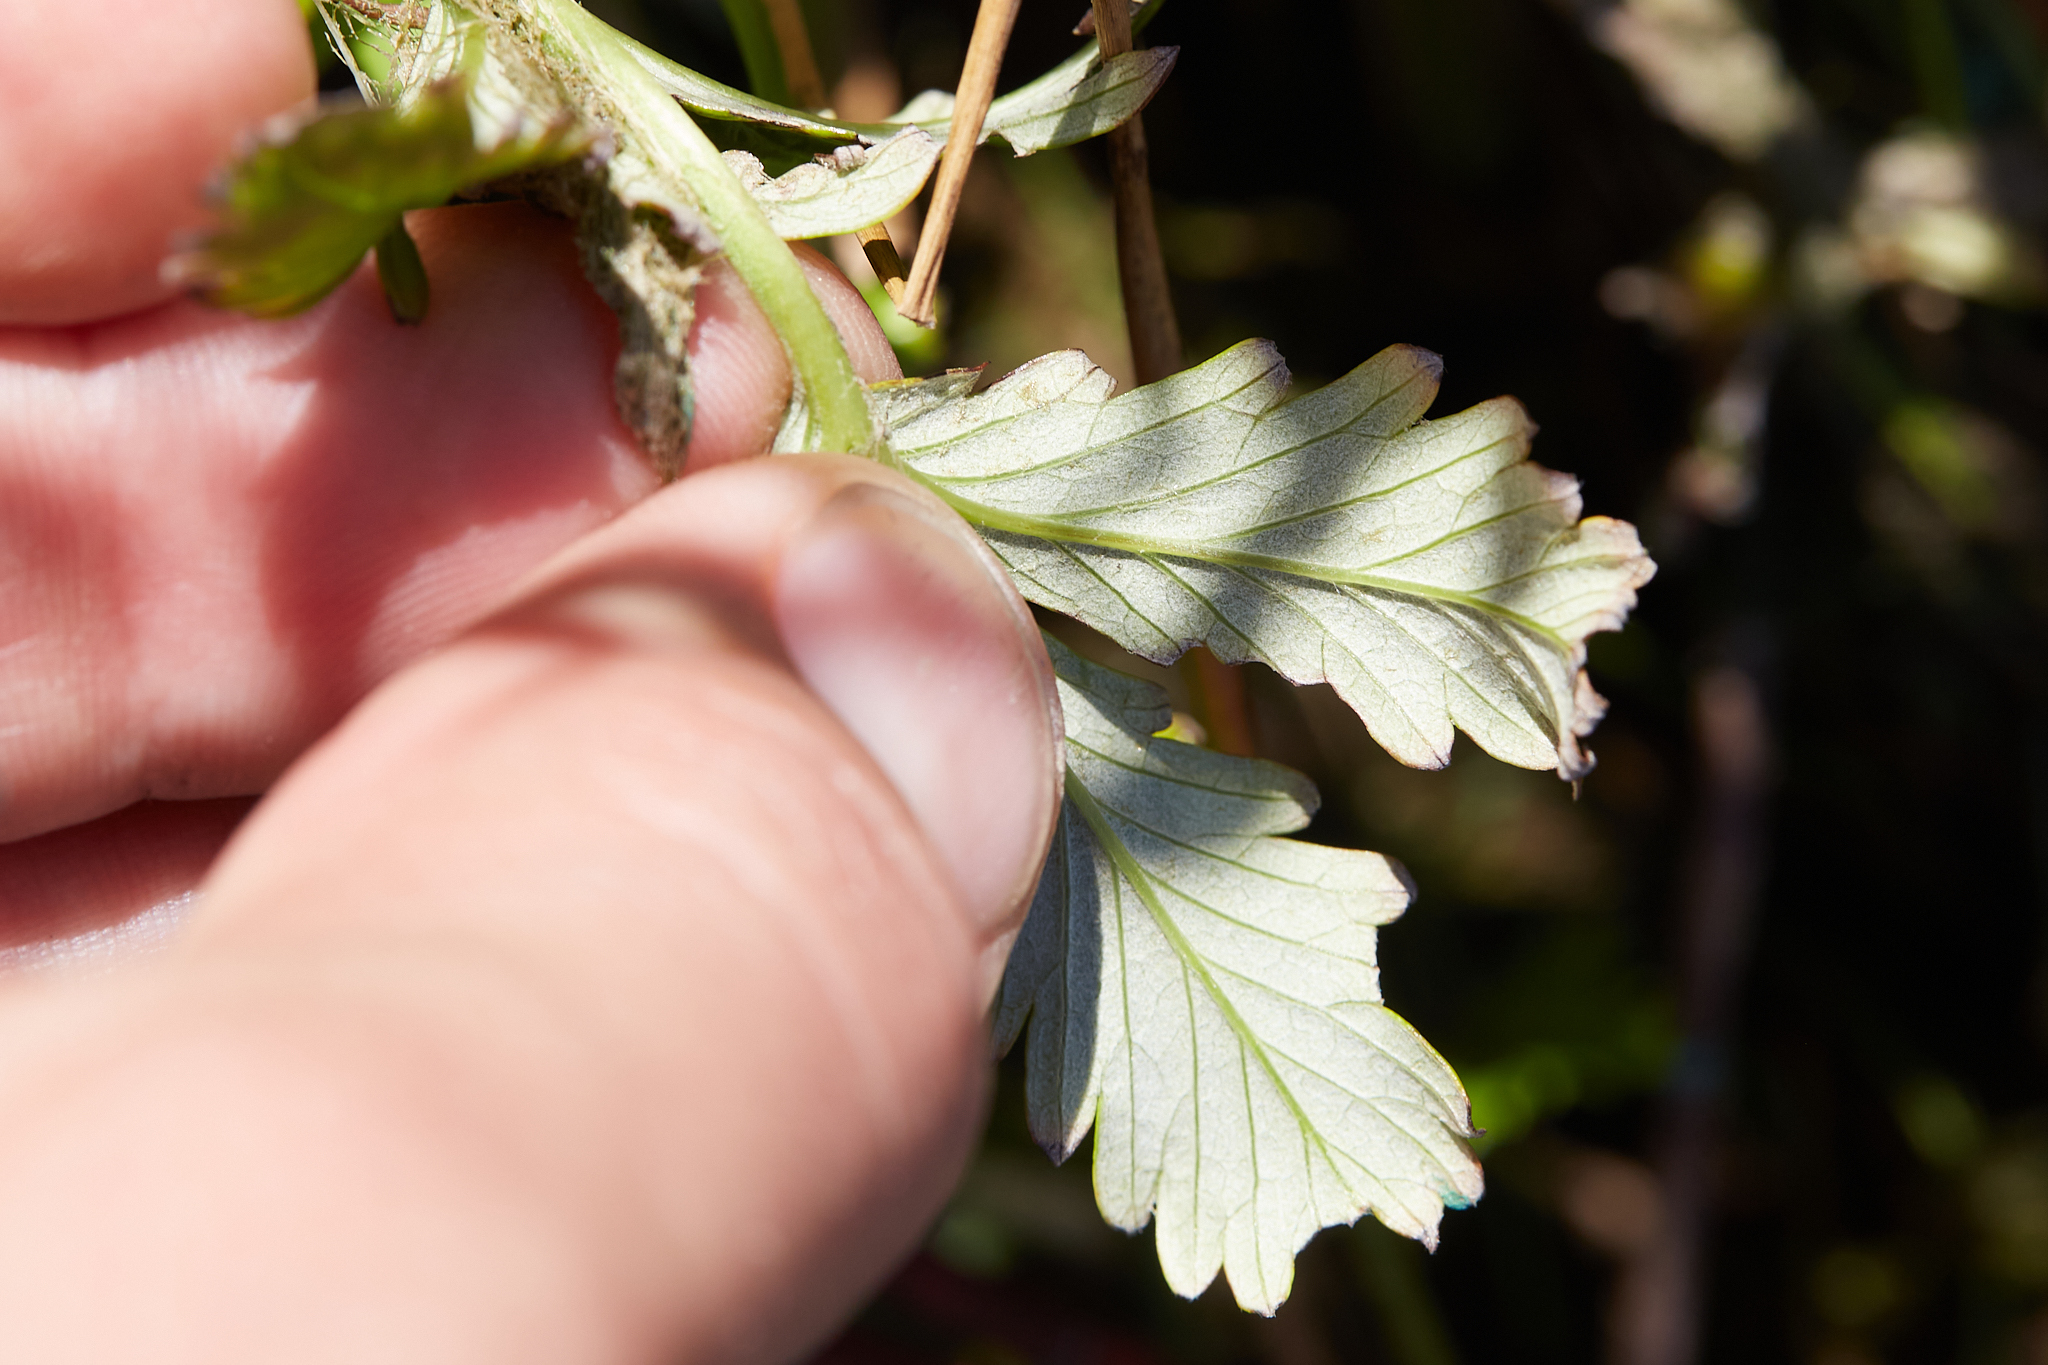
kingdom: Plantae
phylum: Tracheophyta
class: Magnoliopsida
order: Rosales
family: Rosaceae
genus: Argentina
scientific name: Argentina anserina
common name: Common silverweed
